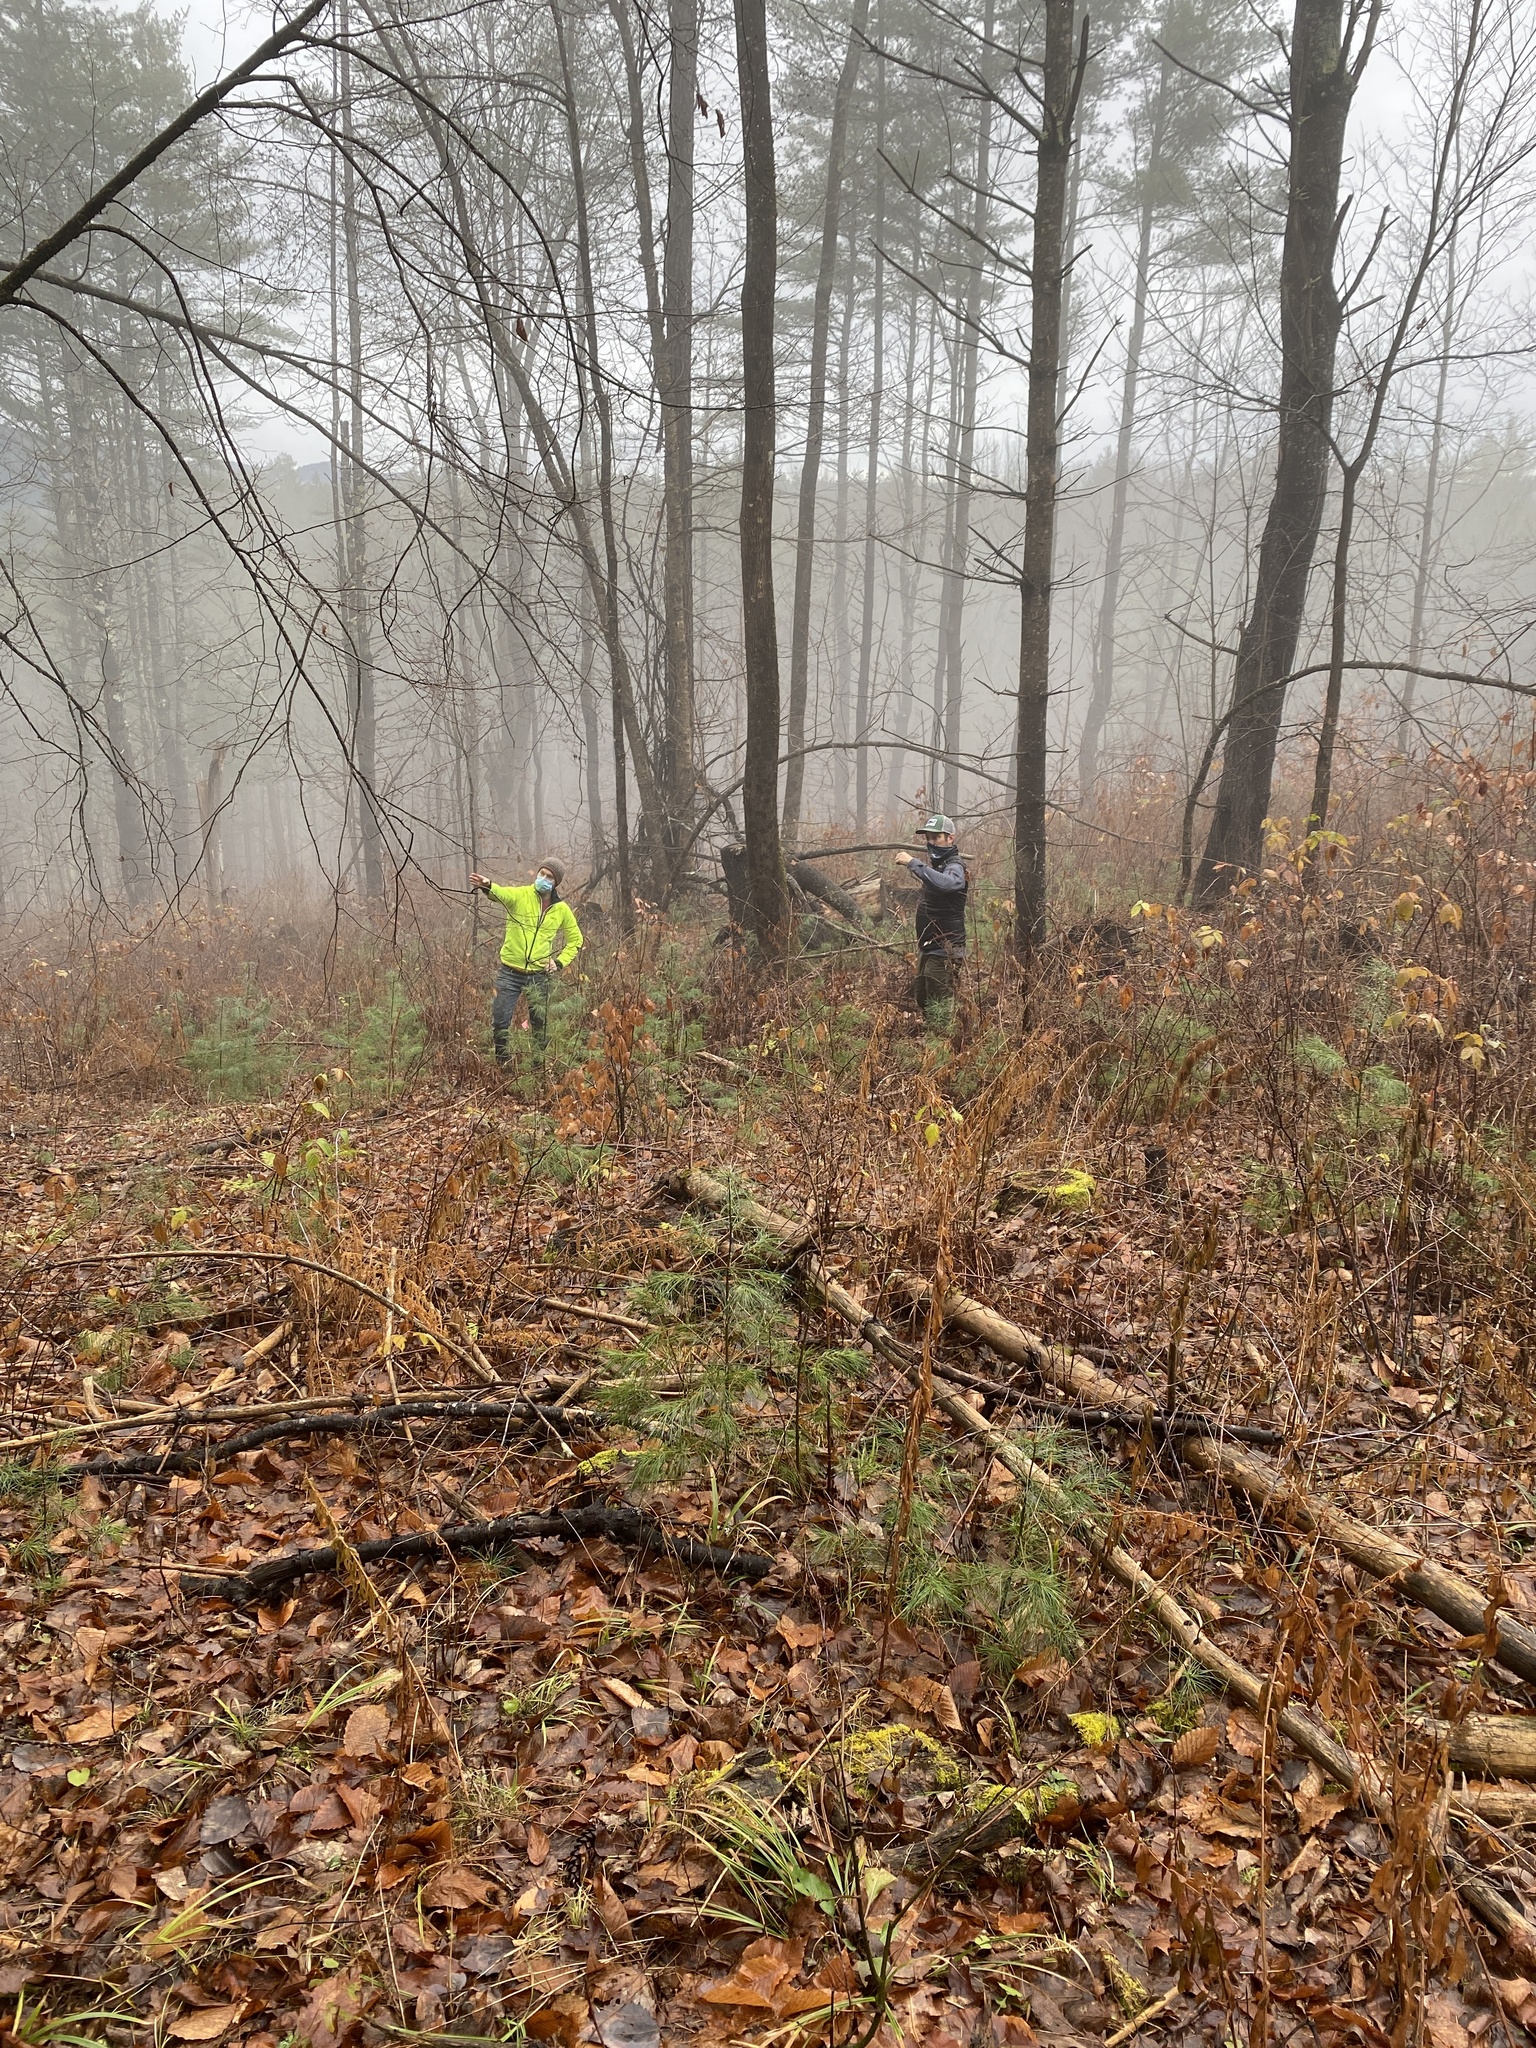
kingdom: Plantae
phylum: Tracheophyta
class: Pinopsida
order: Pinales
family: Pinaceae
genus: Pinus
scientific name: Pinus strobus
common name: Weymouth pine
